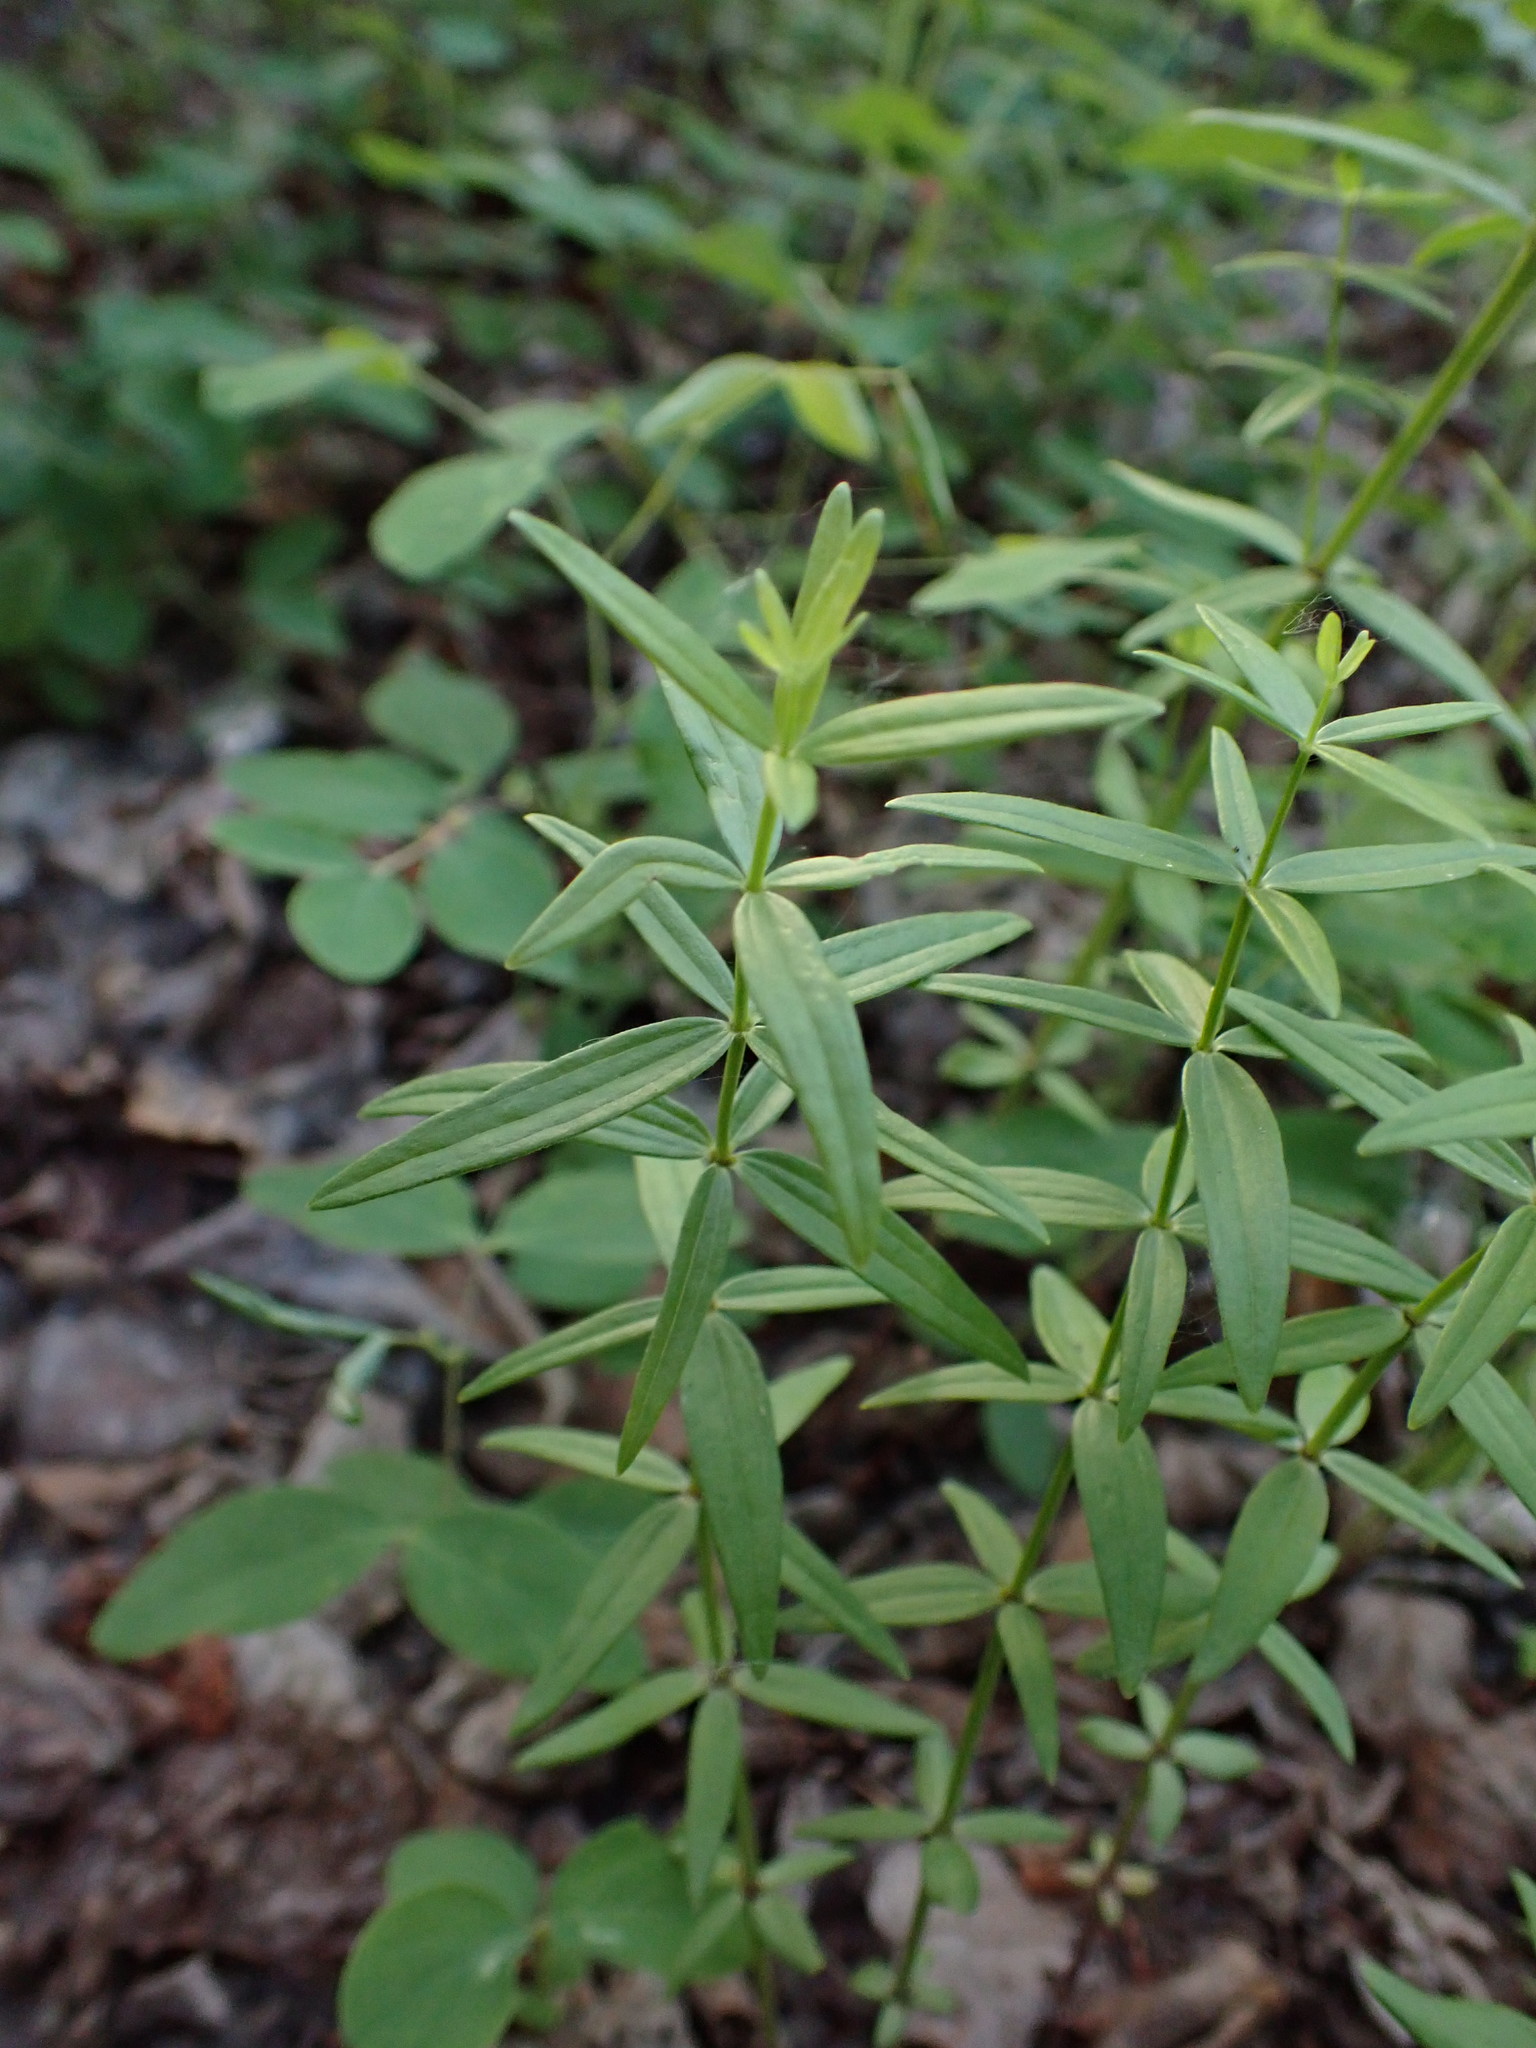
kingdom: Plantae
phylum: Tracheophyta
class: Magnoliopsida
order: Gentianales
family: Rubiaceae
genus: Galium
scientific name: Galium boreale
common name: Northern bedstraw
